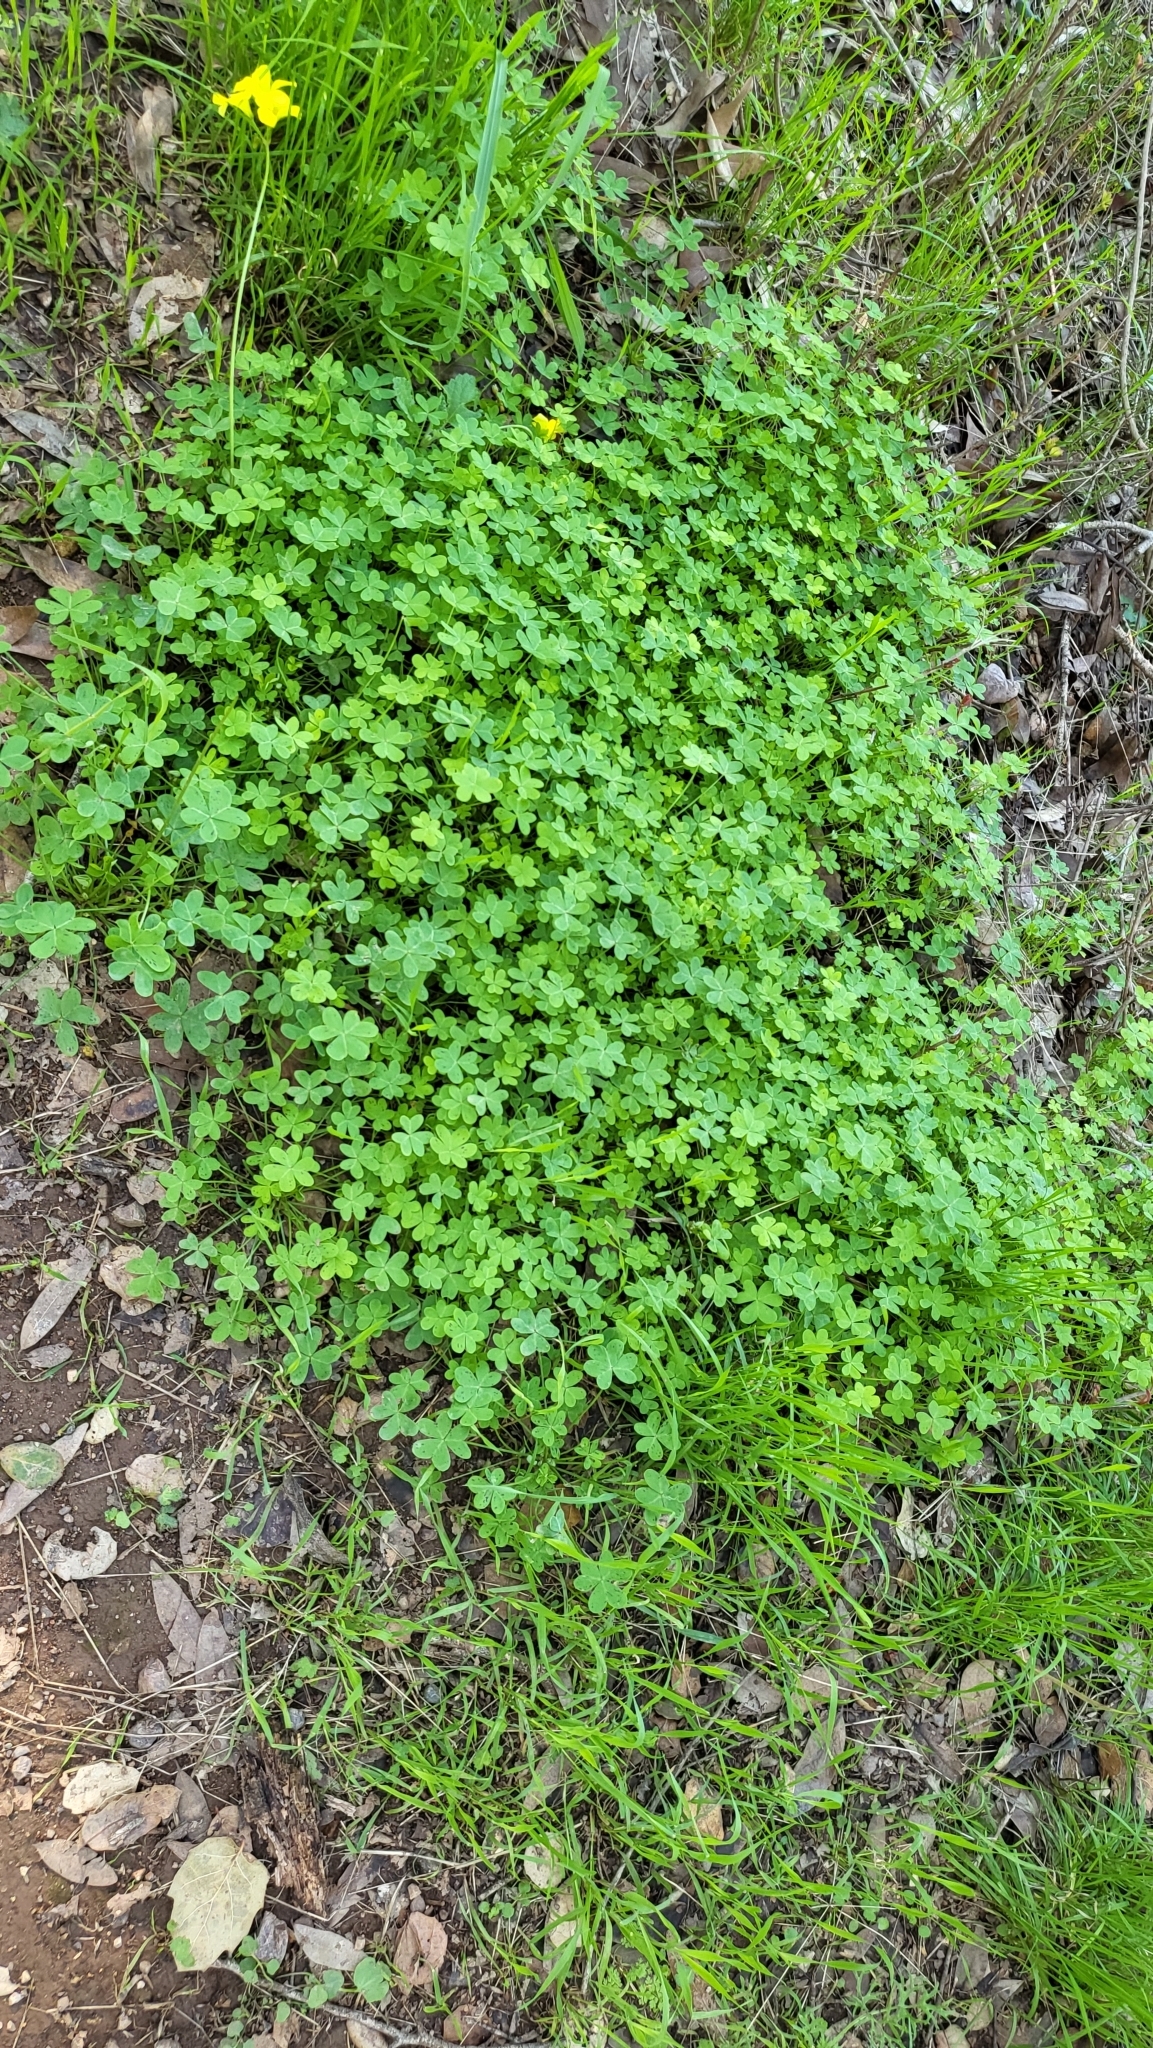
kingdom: Plantae
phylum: Tracheophyta
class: Magnoliopsida
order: Oxalidales
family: Oxalidaceae
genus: Oxalis
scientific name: Oxalis pes-caprae
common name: Bermuda-buttercup
